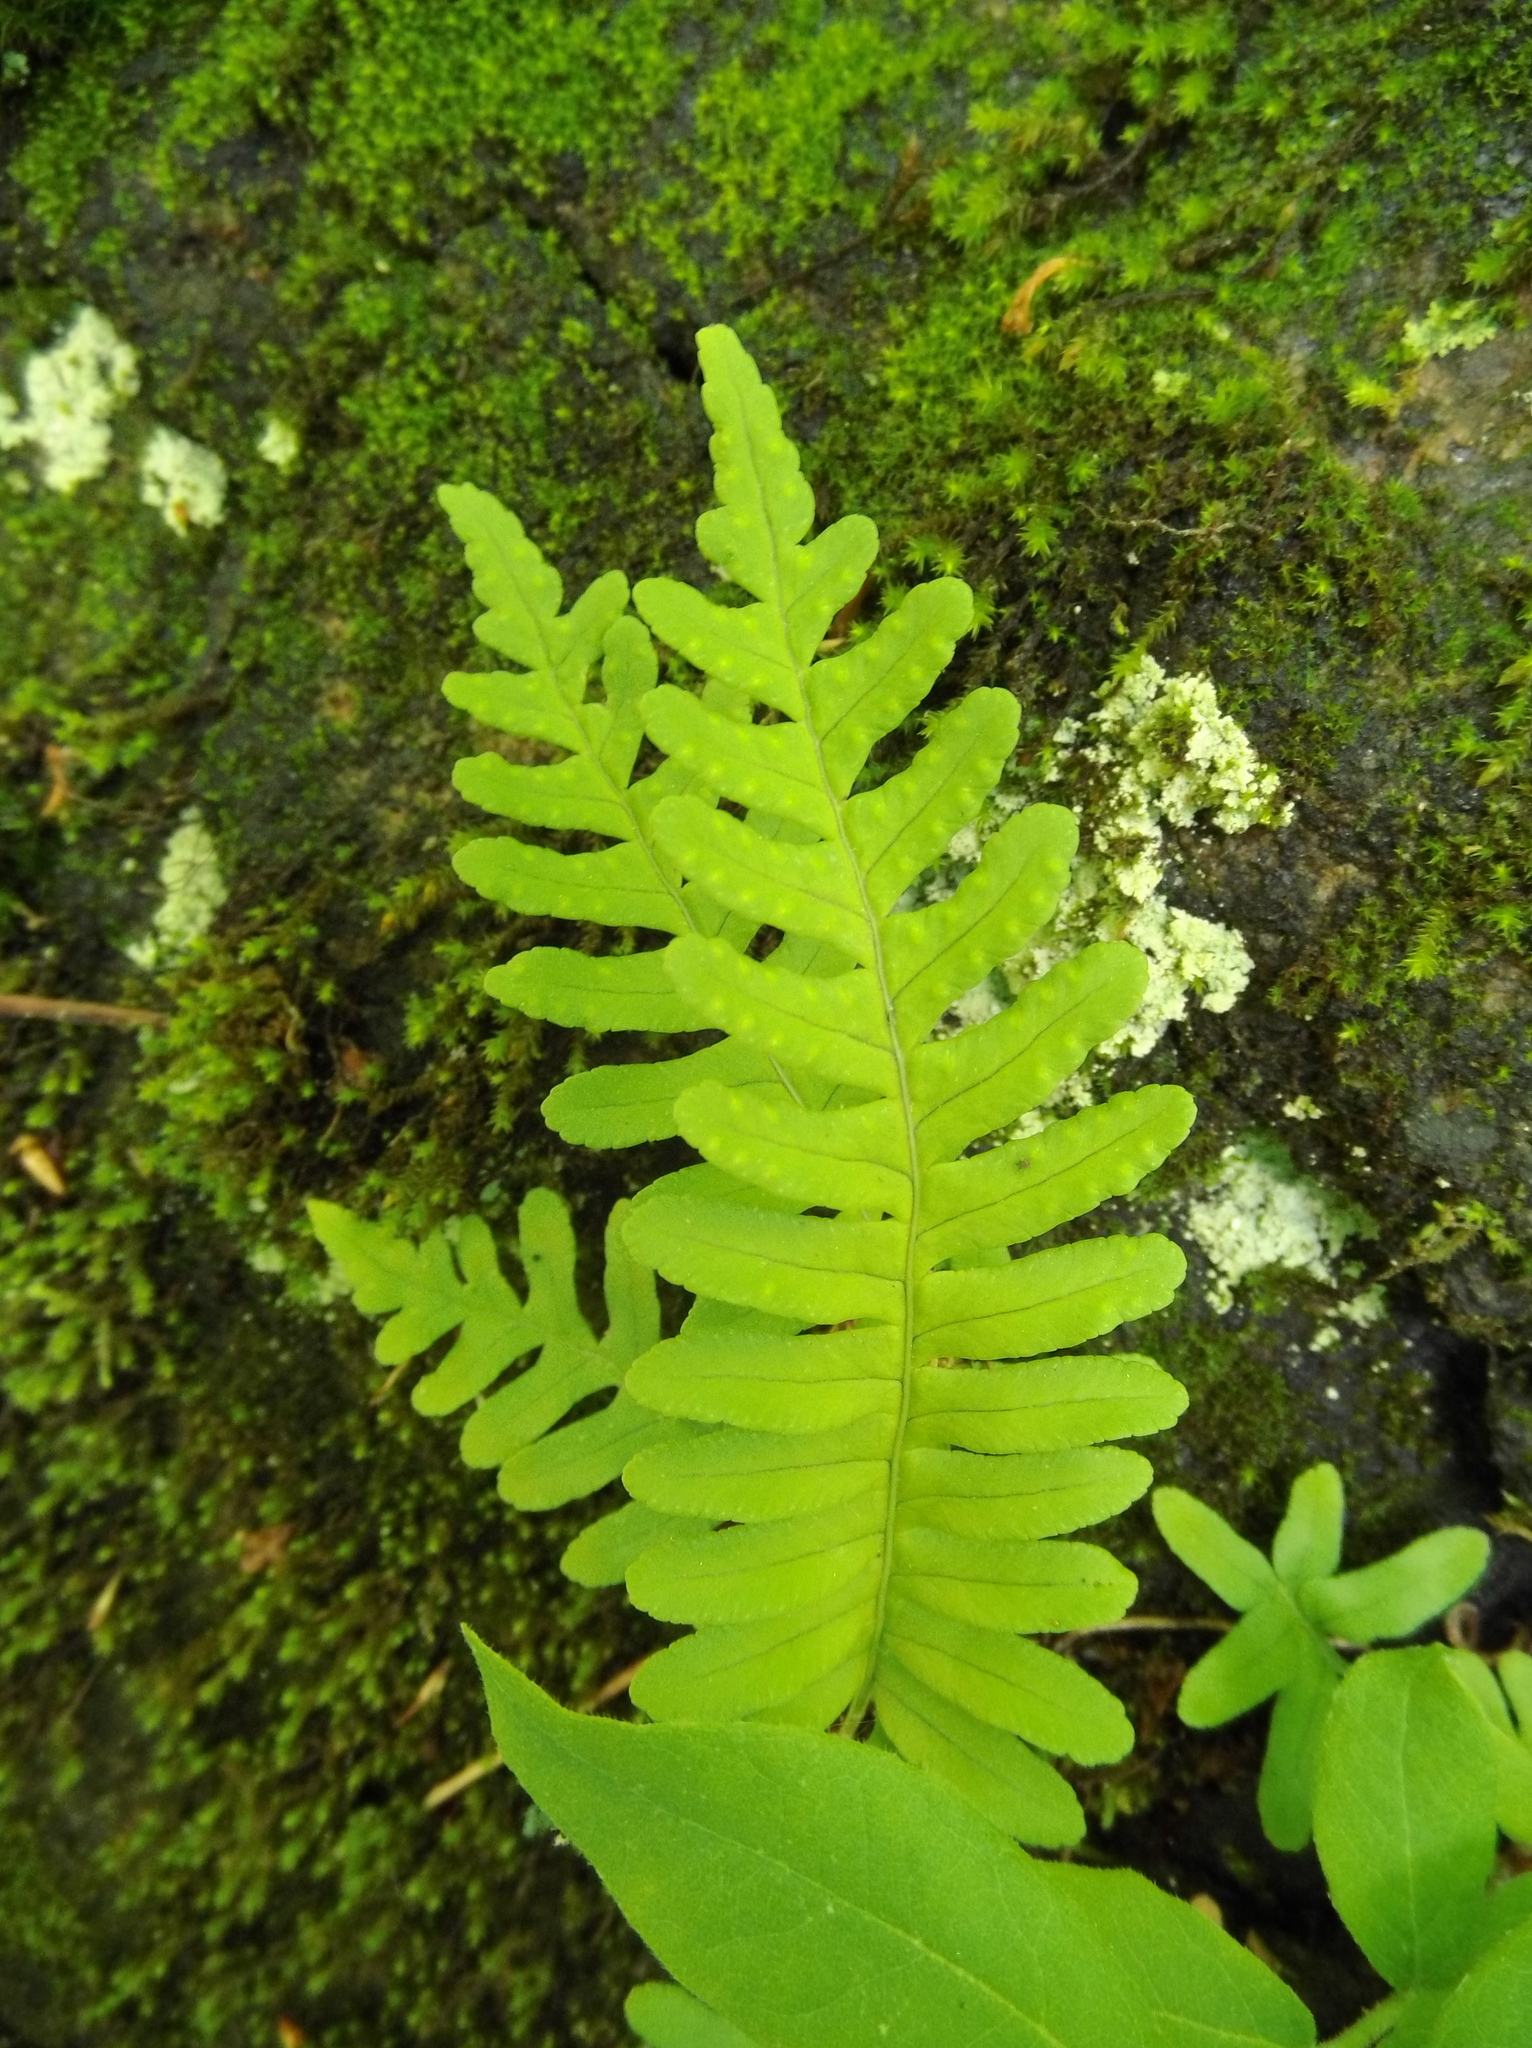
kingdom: Plantae
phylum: Tracheophyta
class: Polypodiopsida
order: Polypodiales
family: Polypodiaceae
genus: Polypodium
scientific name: Polypodium virginianum
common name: American wall fern
